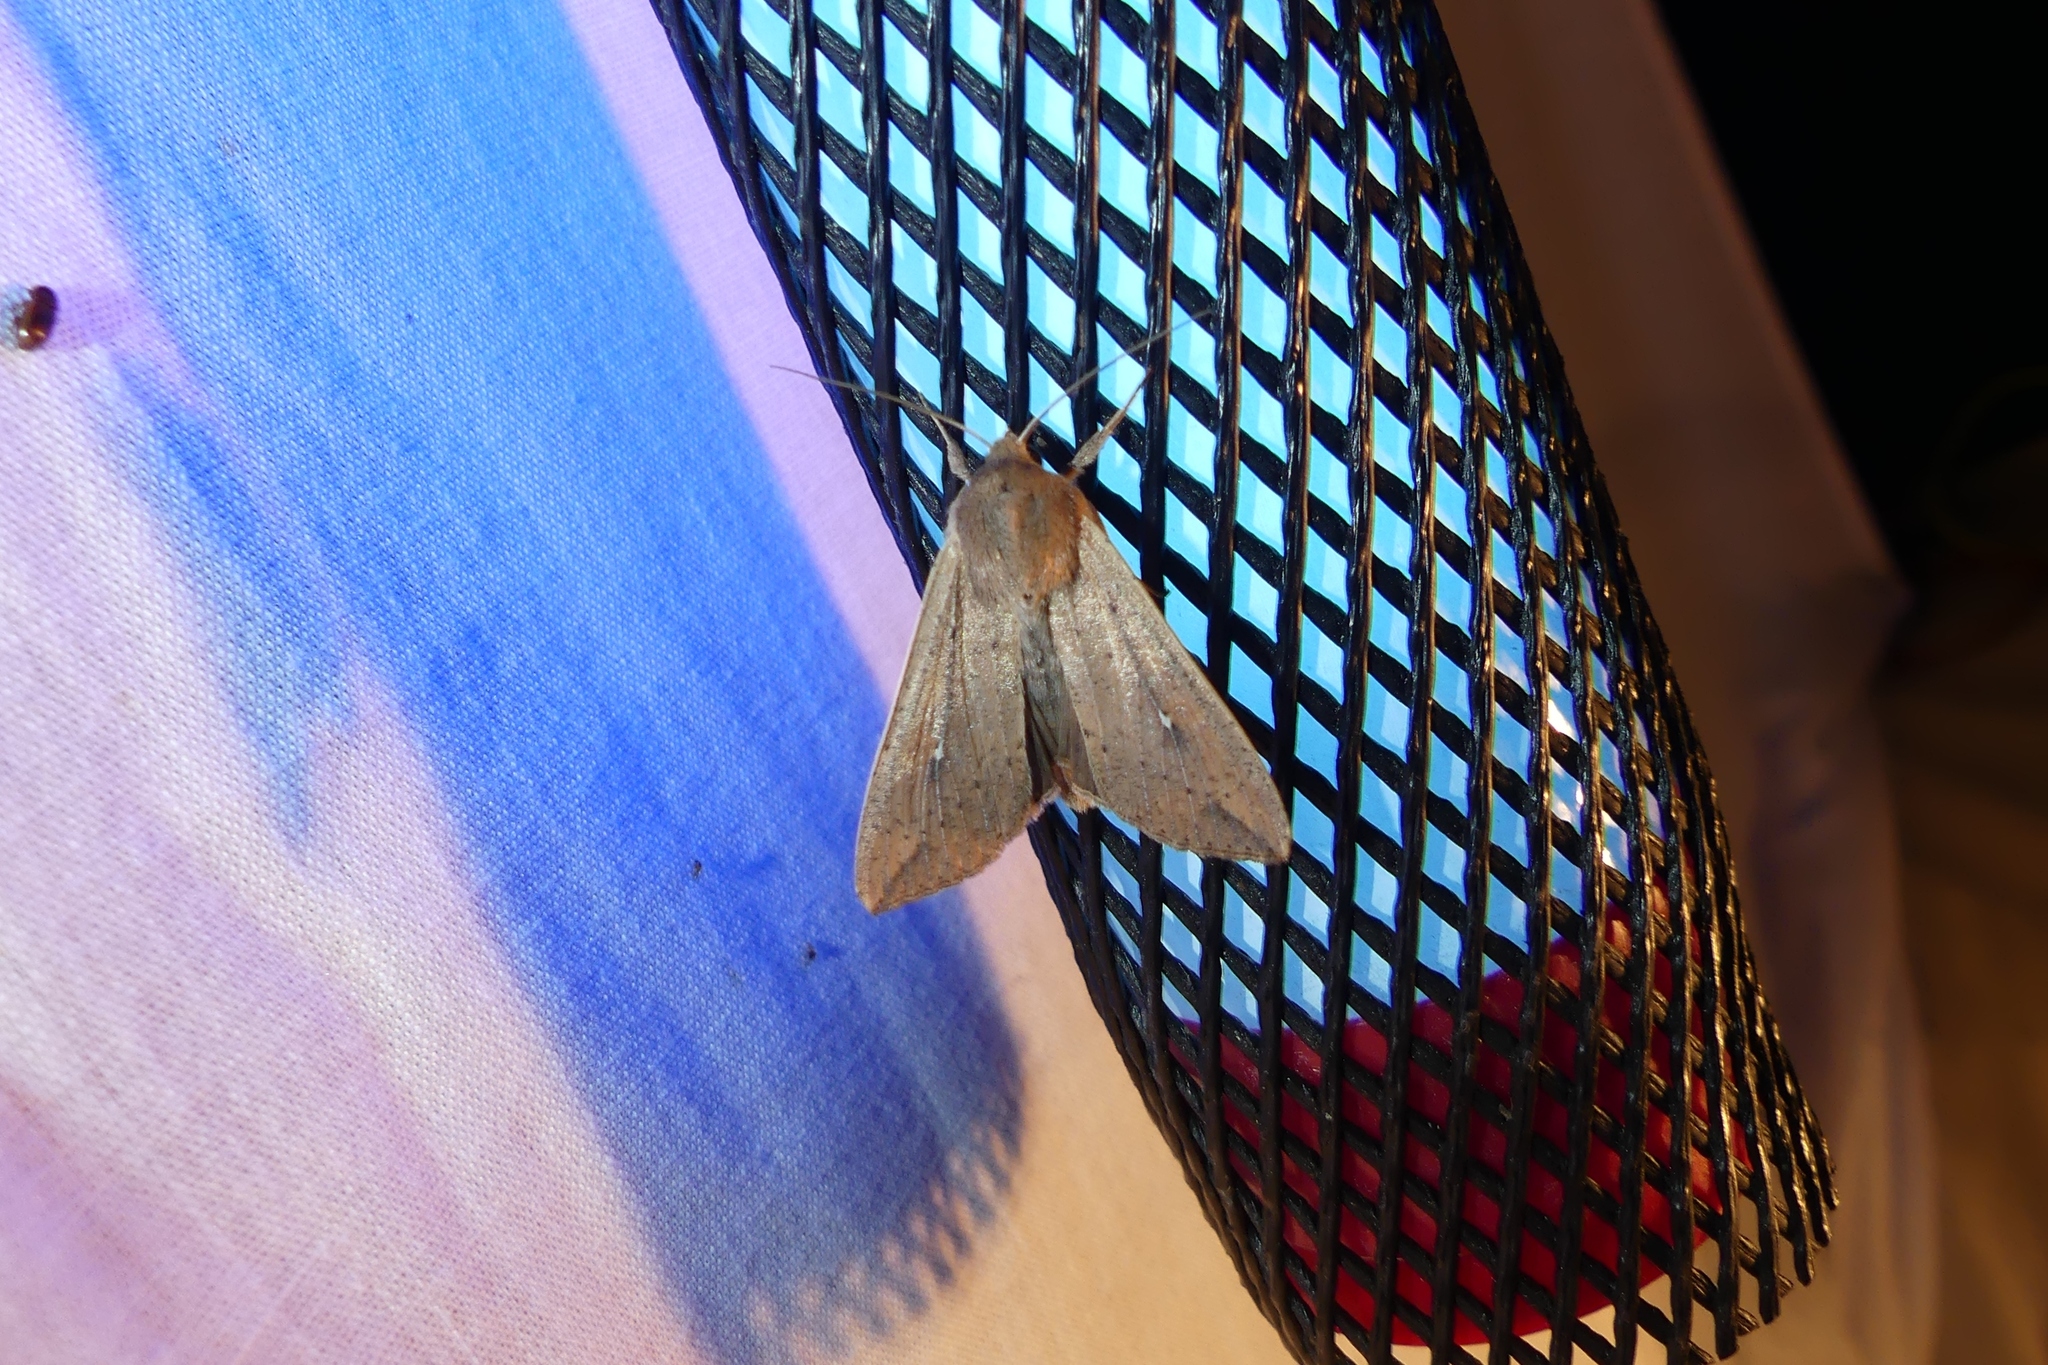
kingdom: Animalia
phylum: Arthropoda
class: Insecta
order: Lepidoptera
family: Noctuidae
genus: Mythimna
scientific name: Mythimna unipuncta
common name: White-speck
